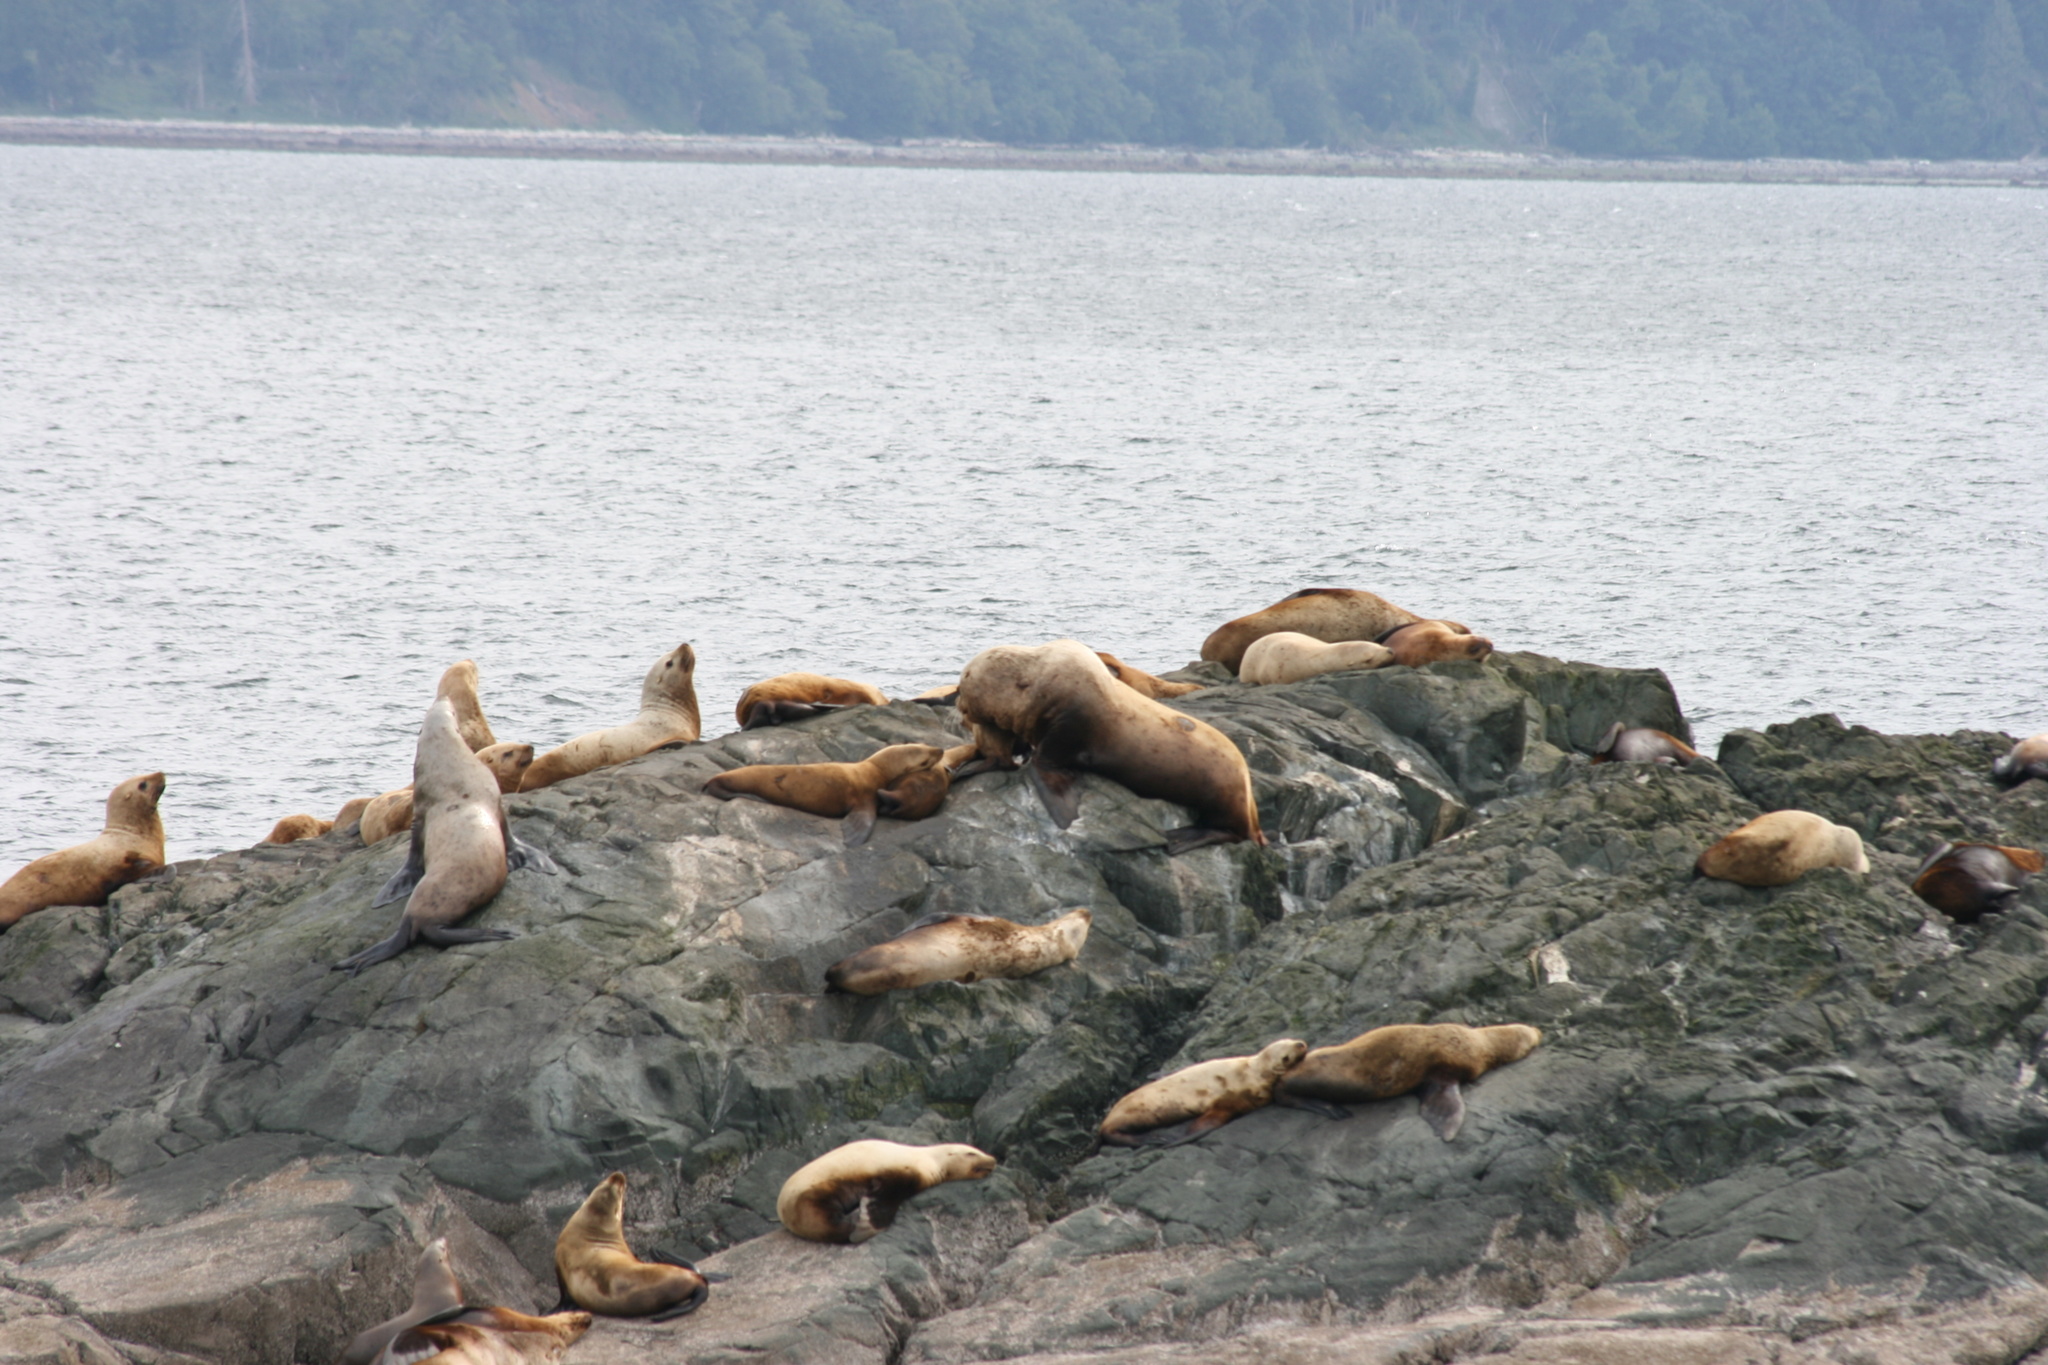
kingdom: Animalia
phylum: Chordata
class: Mammalia
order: Carnivora
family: Otariidae
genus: Eumetopias
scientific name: Eumetopias jubatus
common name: Steller sea lion
